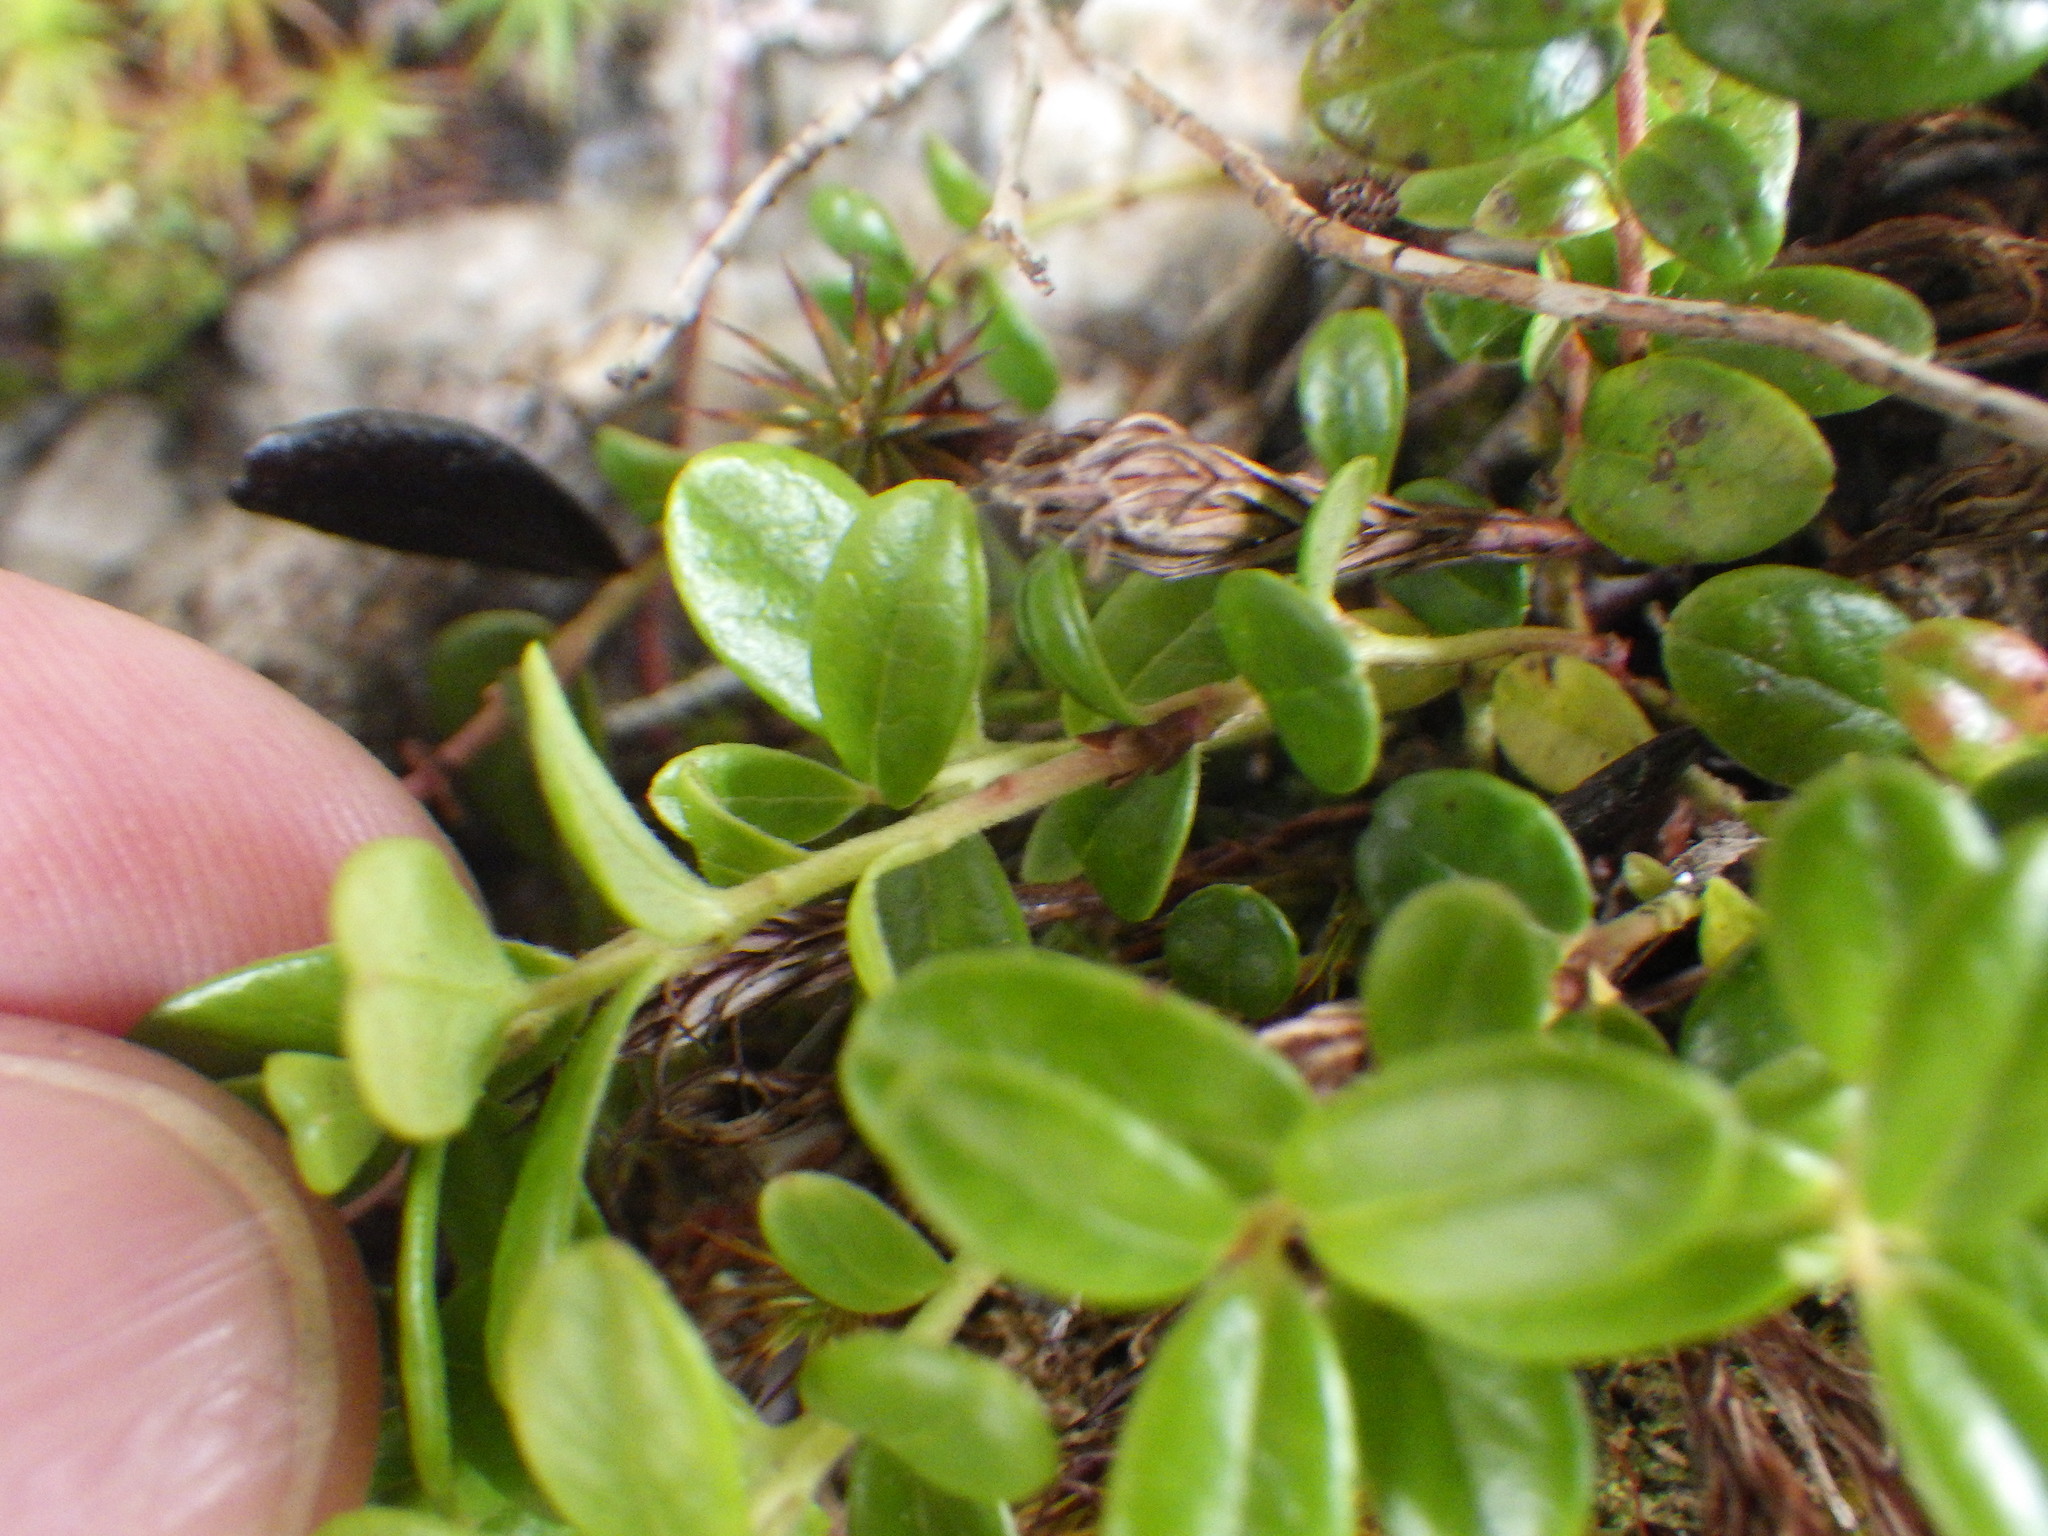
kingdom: Plantae
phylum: Tracheophyta
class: Magnoliopsida
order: Ericales
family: Ericaceae
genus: Vaccinium
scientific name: Vaccinium vitis-idaea
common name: Cowberry
